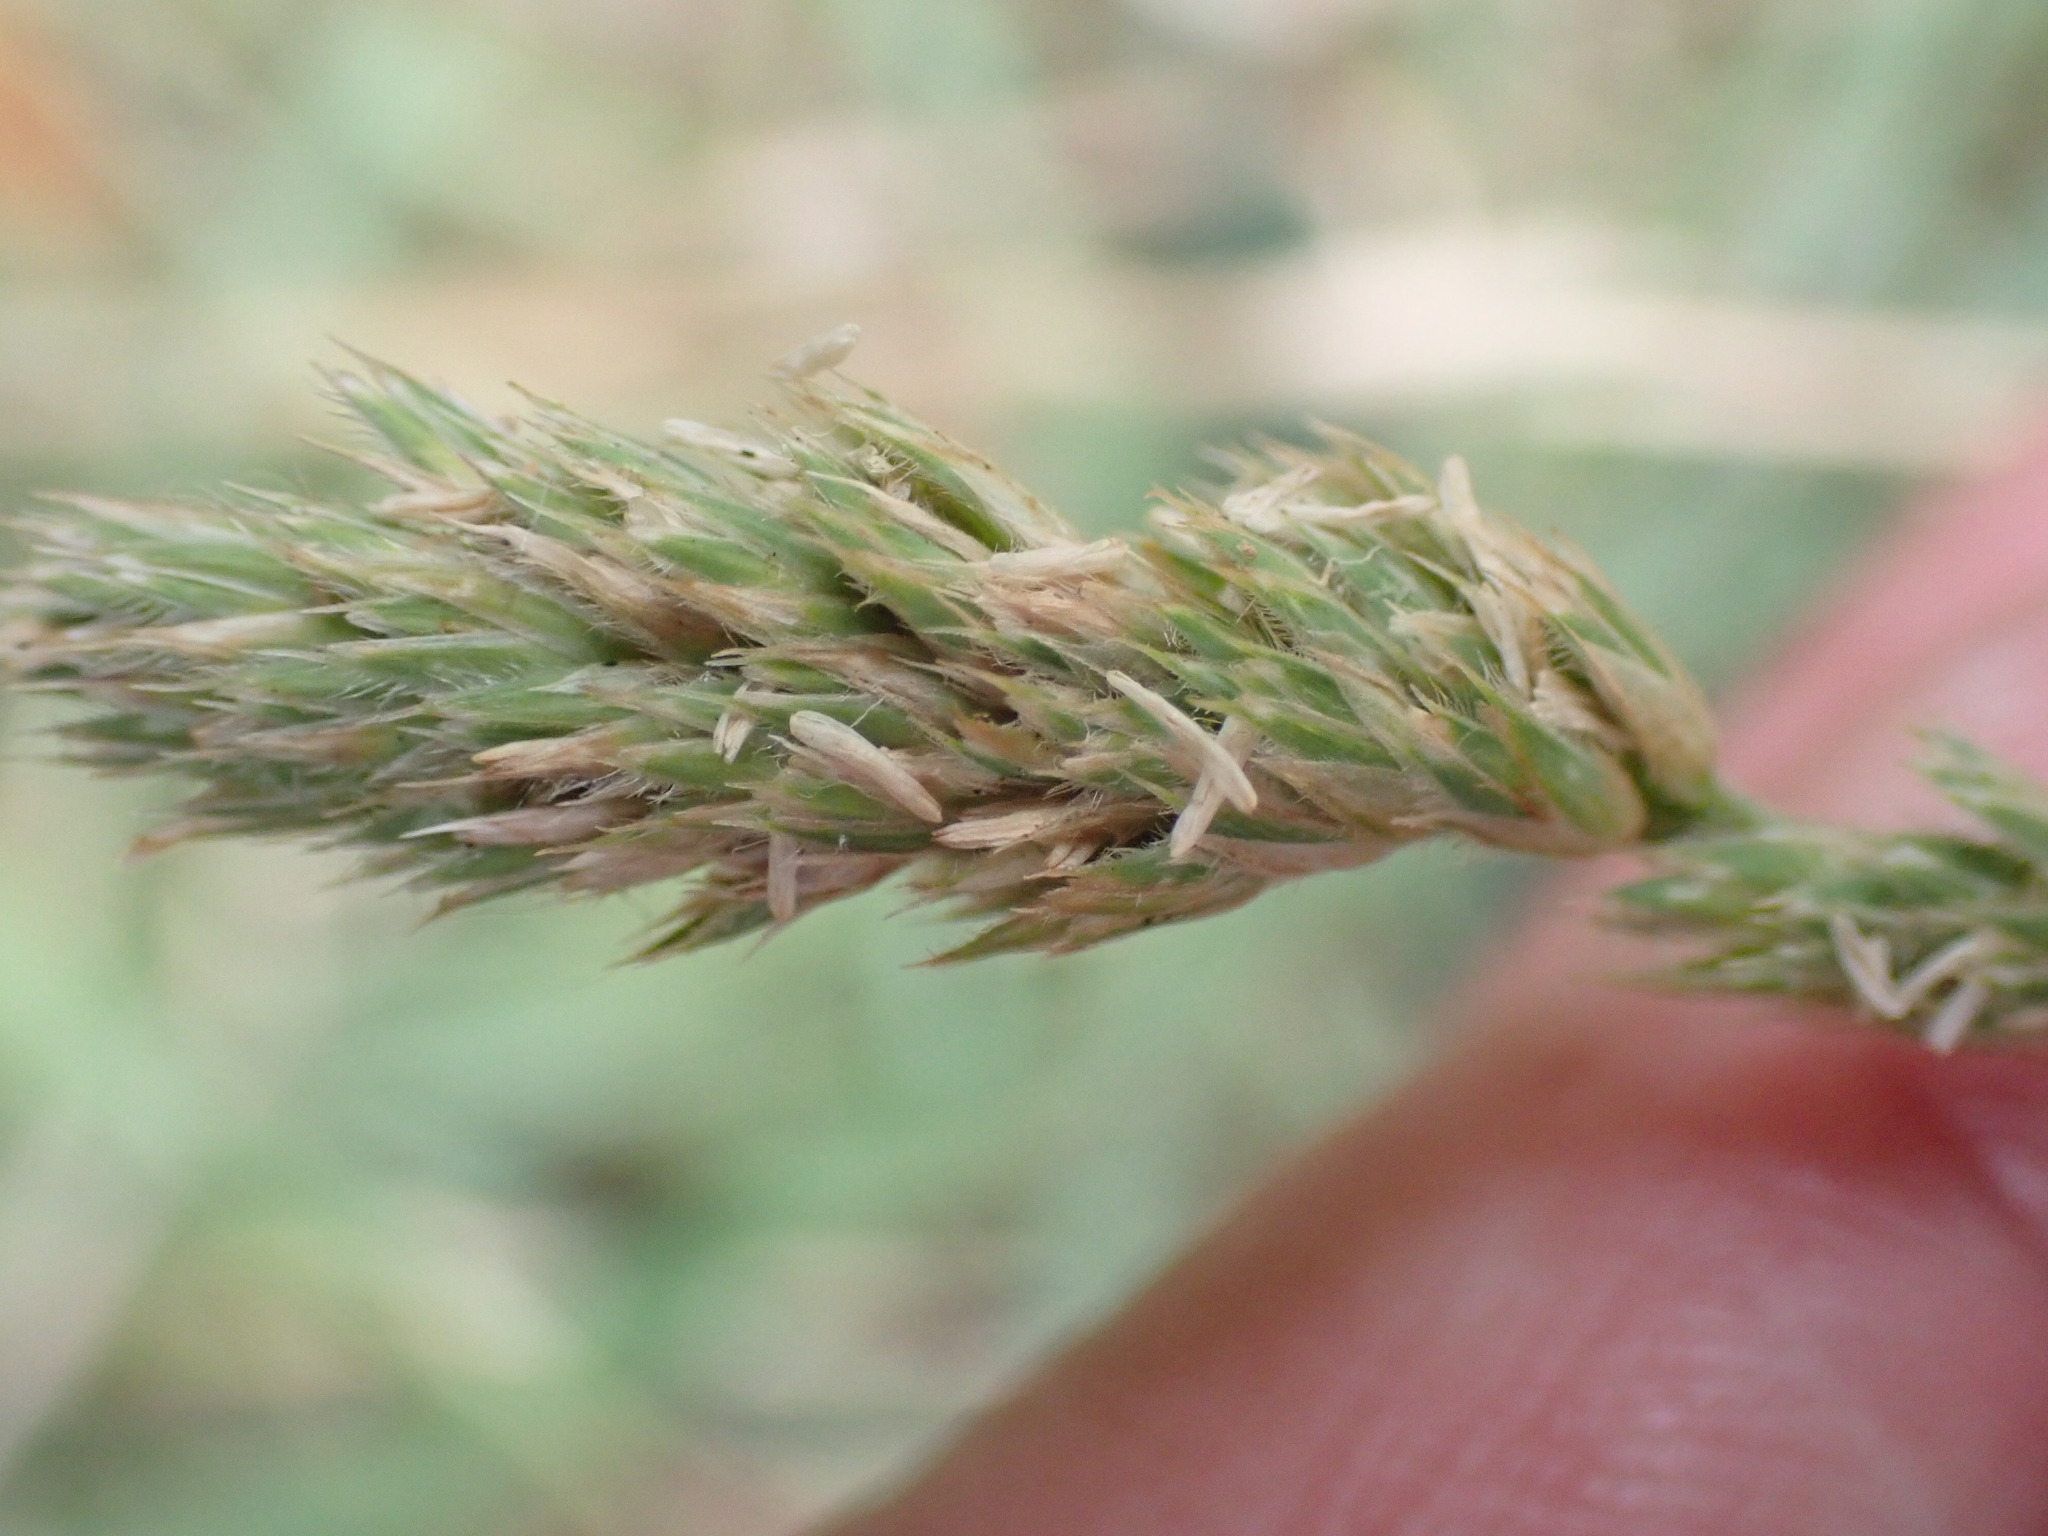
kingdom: Plantae
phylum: Tracheophyta
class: Liliopsida
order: Poales
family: Poaceae
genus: Dactylis
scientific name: Dactylis glomerata
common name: Orchardgrass
